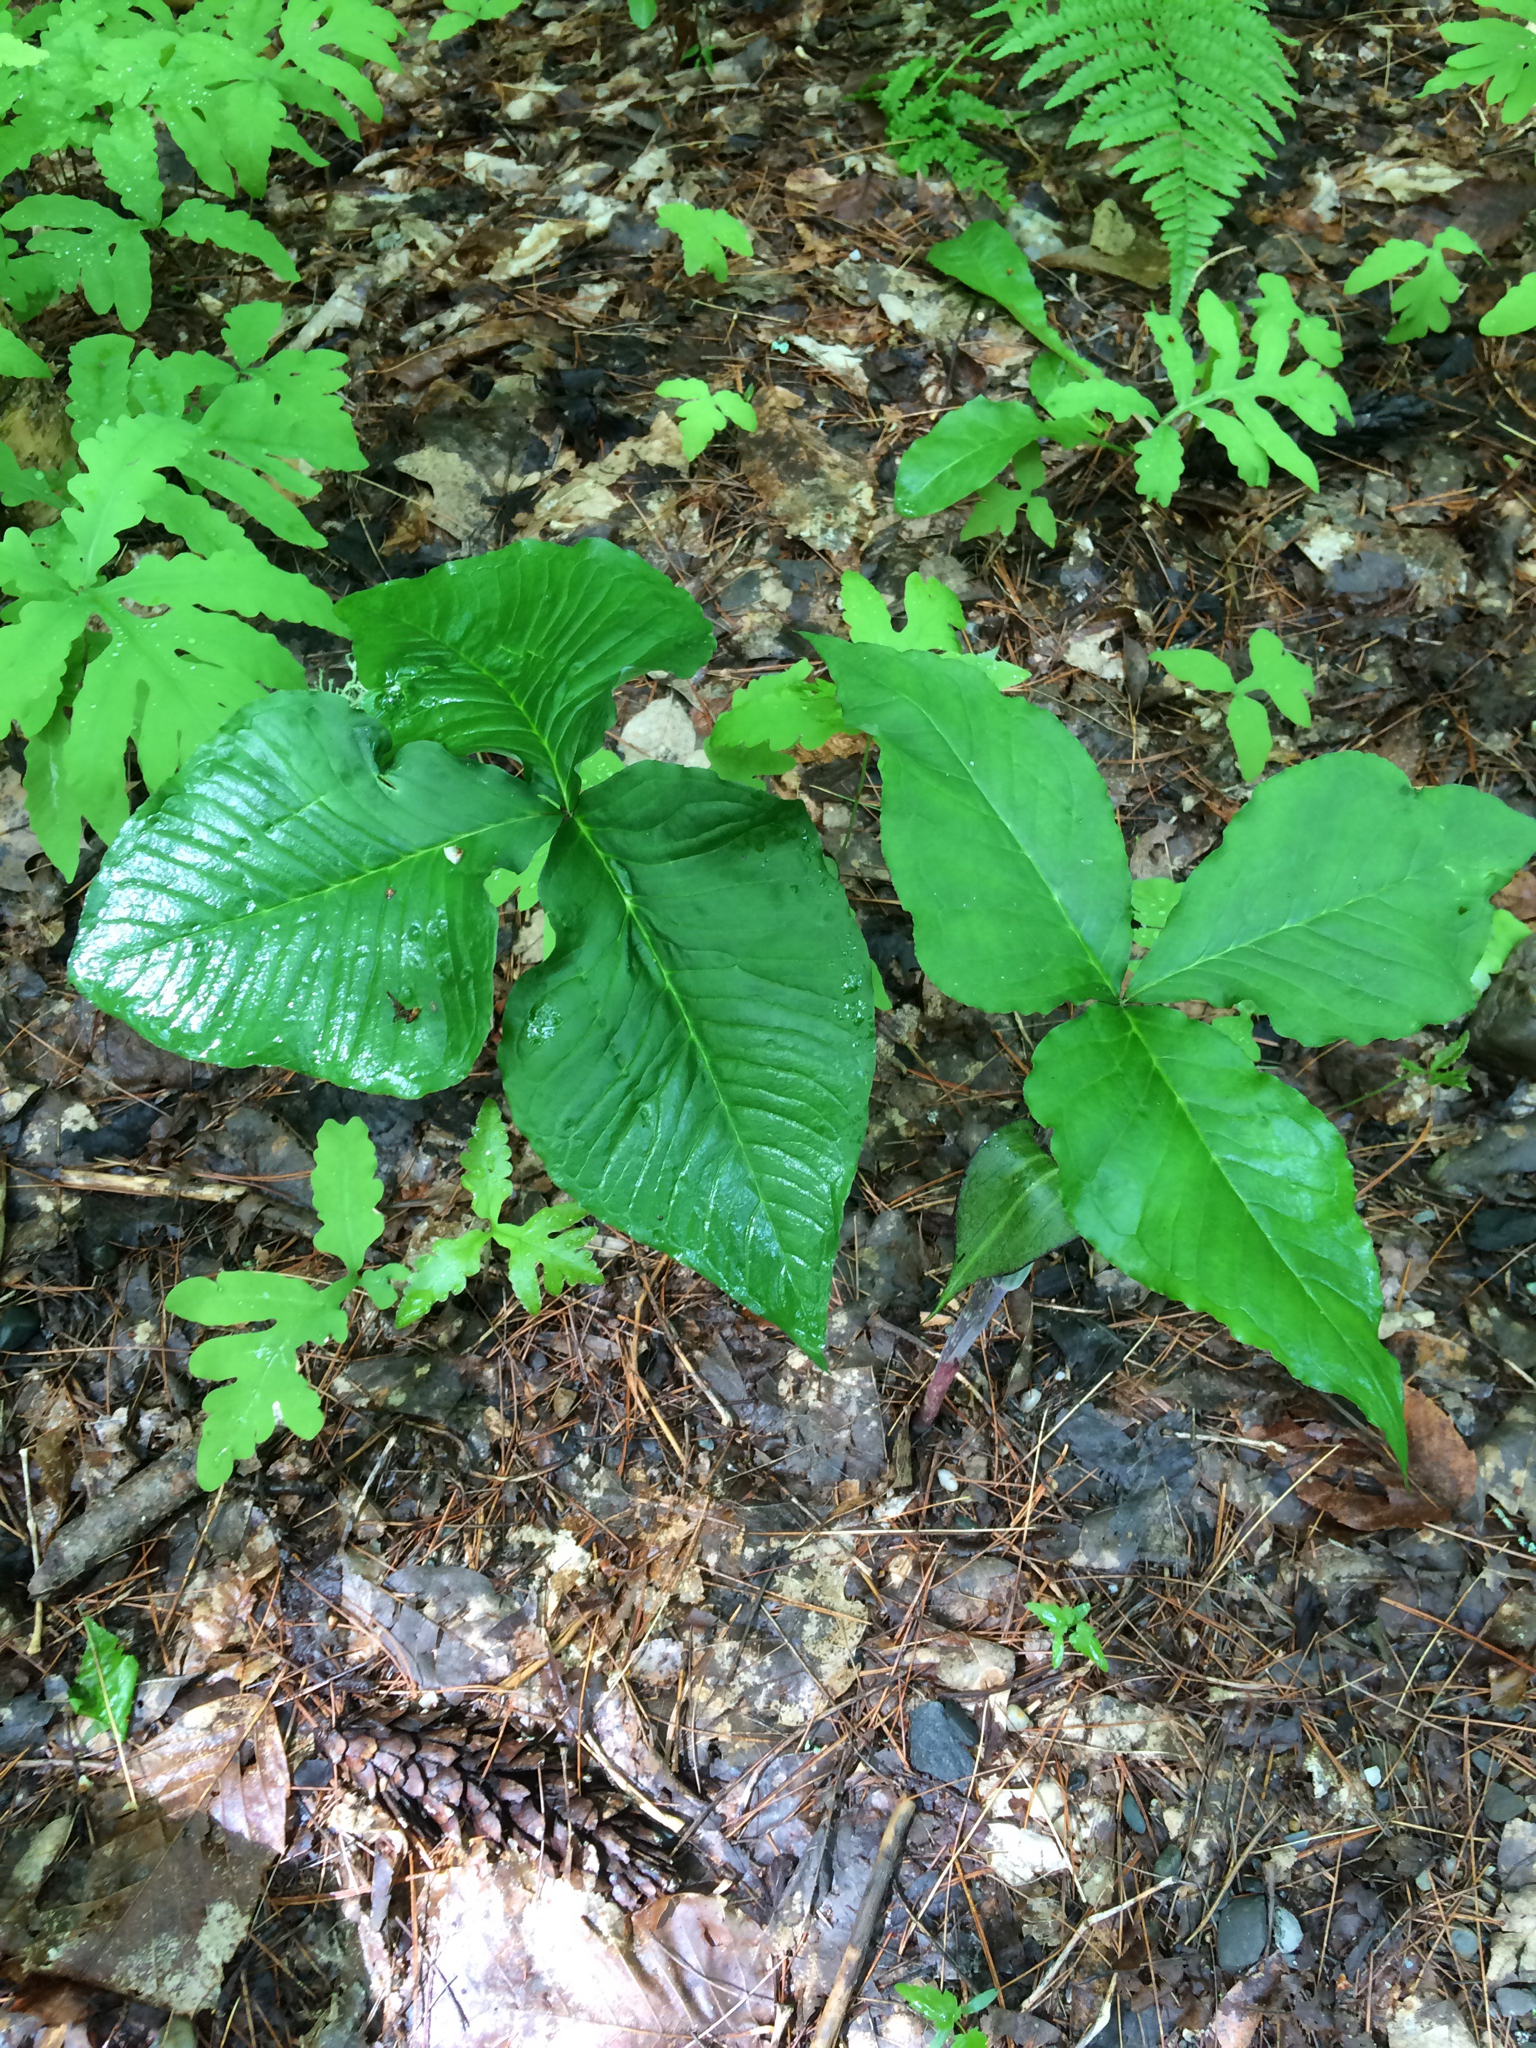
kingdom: Plantae
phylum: Tracheophyta
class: Liliopsida
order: Alismatales
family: Araceae
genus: Arisaema
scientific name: Arisaema triphyllum
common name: Jack-in-the-pulpit
